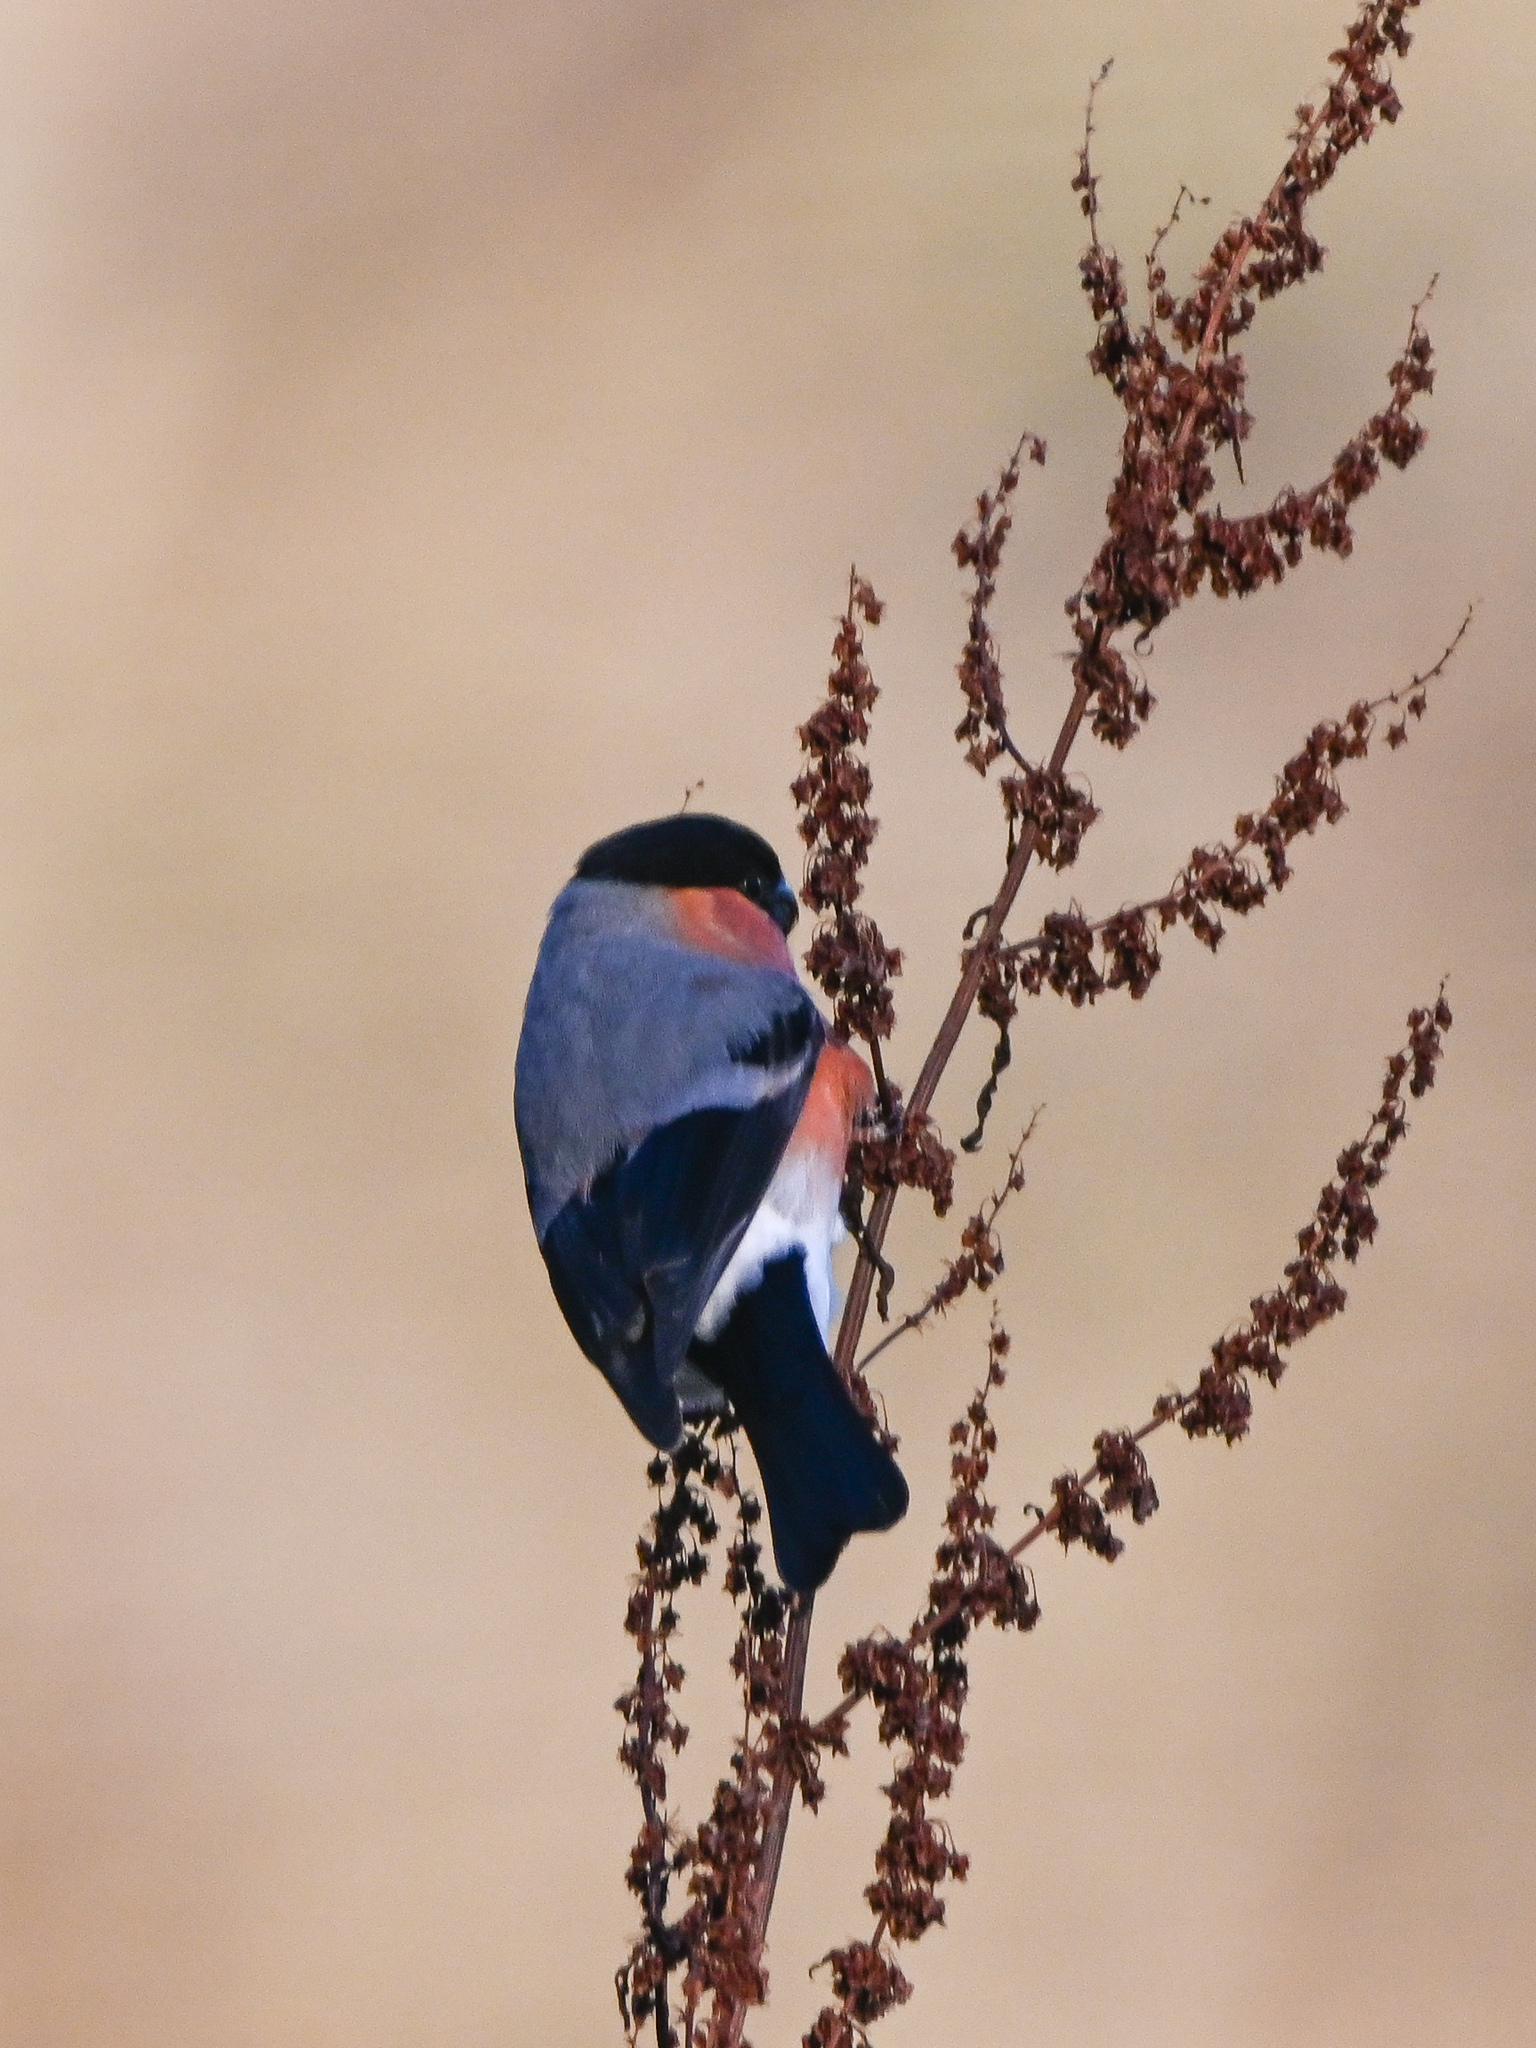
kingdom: Animalia
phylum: Chordata
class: Aves
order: Passeriformes
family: Fringillidae
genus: Pyrrhula
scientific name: Pyrrhula pyrrhula
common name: Eurasian bullfinch
